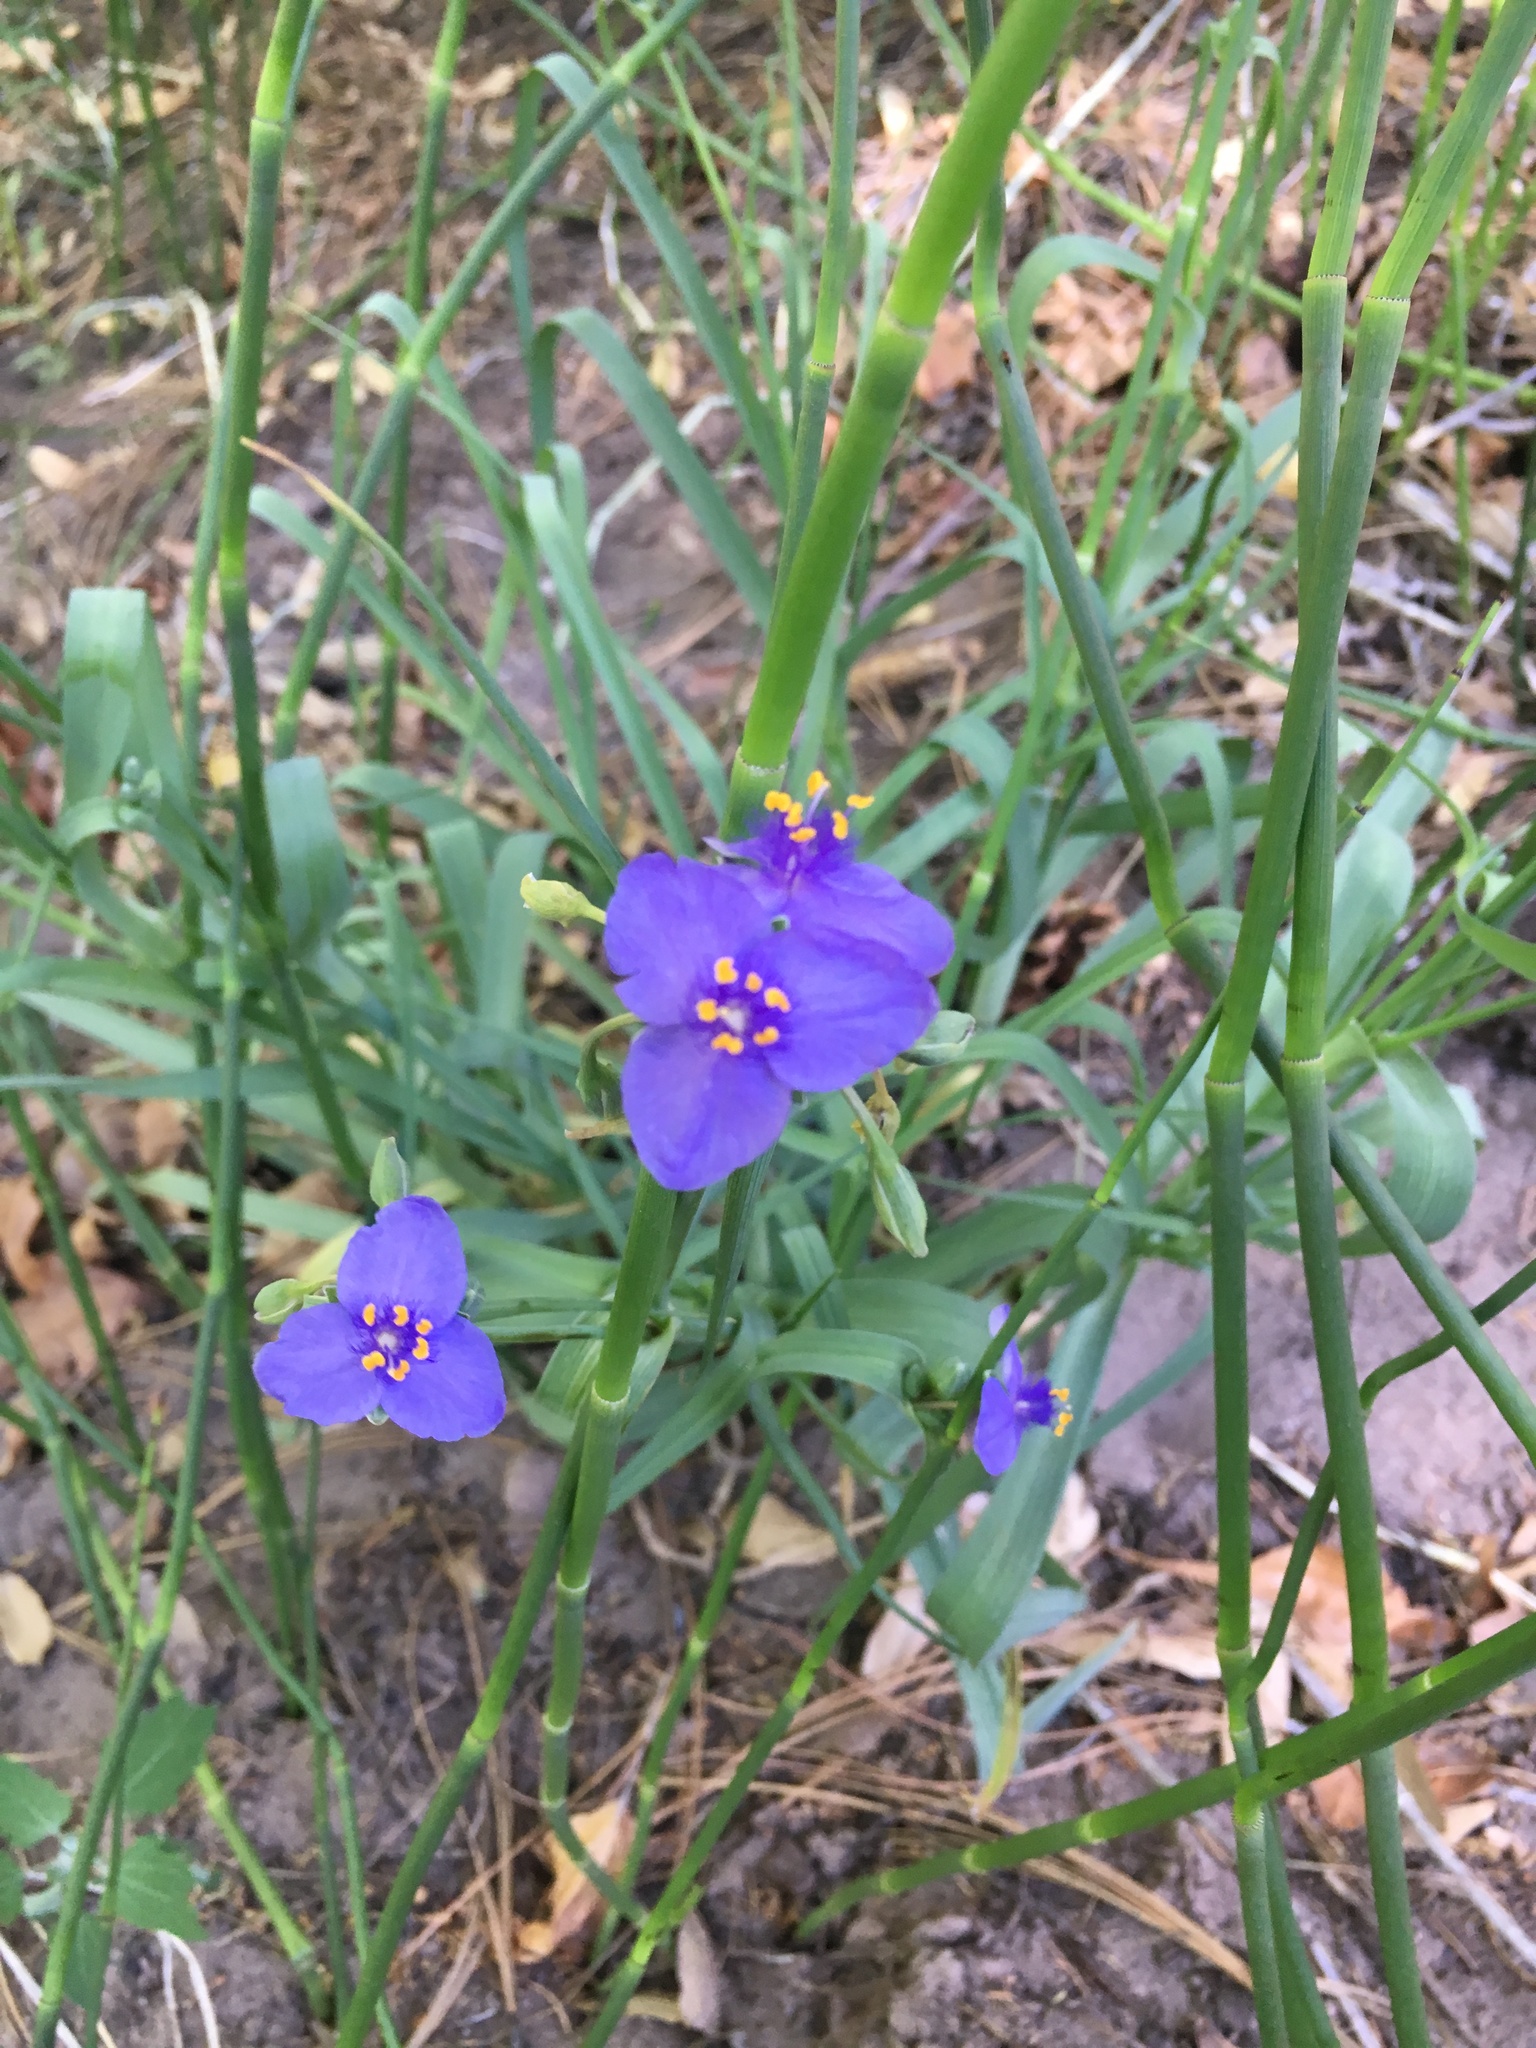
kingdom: Plantae
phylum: Tracheophyta
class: Liliopsida
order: Commelinales
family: Commelinaceae
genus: Tradescantia
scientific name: Tradescantia occidentalis
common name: Prairie spiderwort
